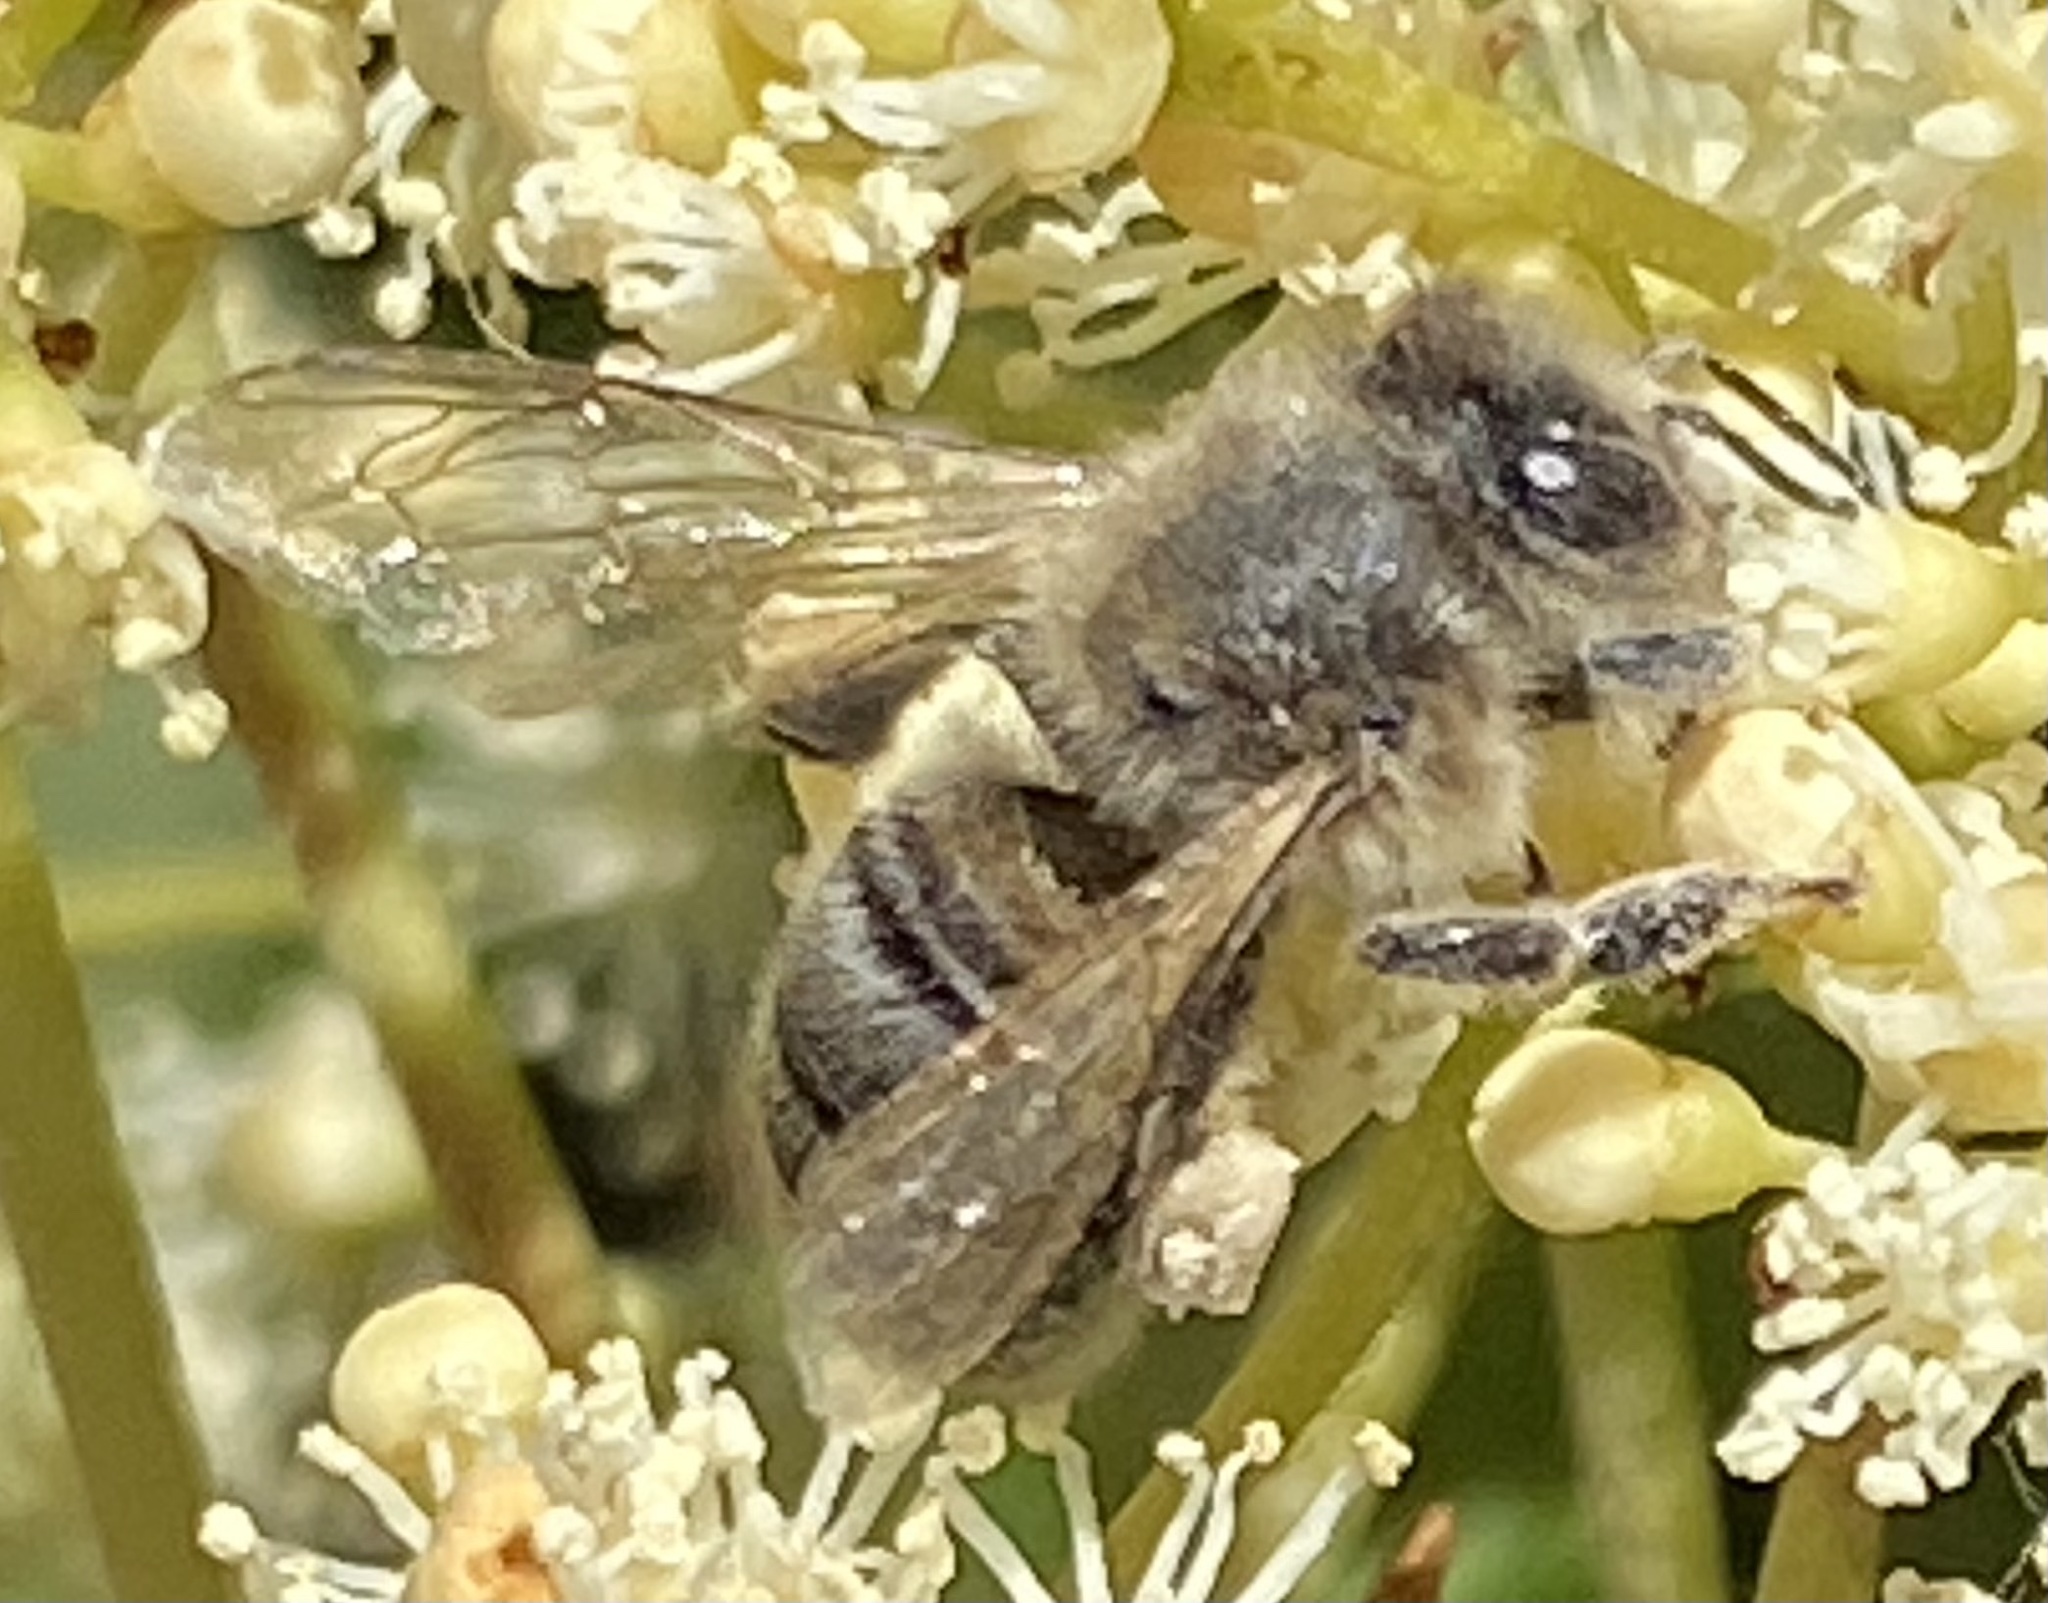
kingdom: Animalia
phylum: Arthropoda
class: Insecta
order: Hymenoptera
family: Apidae
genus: Apis
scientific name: Apis mellifera
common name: Honey bee
